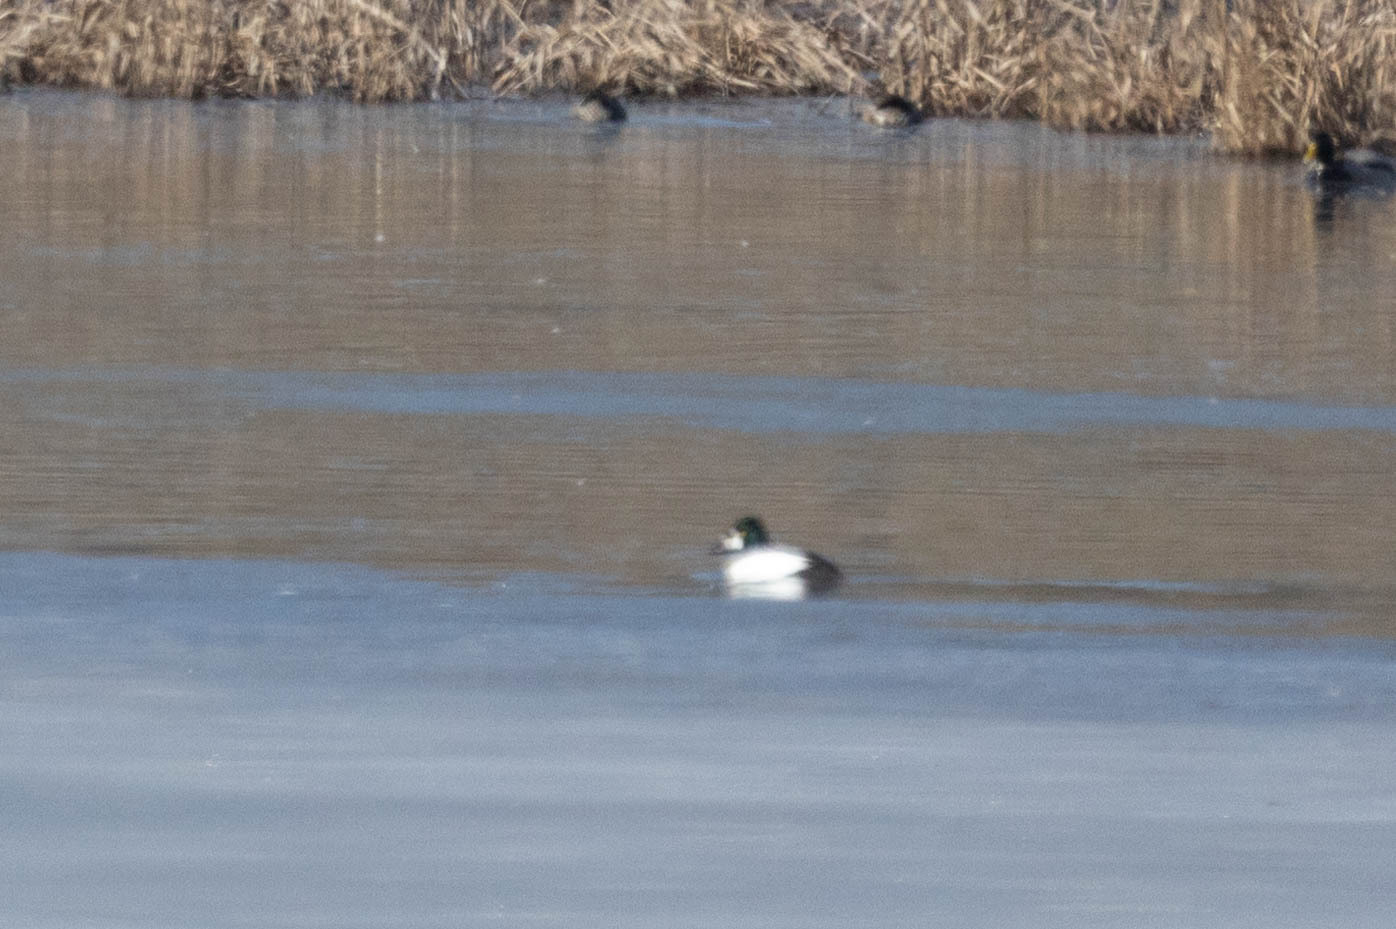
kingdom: Animalia
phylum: Chordata
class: Aves
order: Anseriformes
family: Anatidae
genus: Bucephala
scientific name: Bucephala clangula
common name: Common goldeneye
